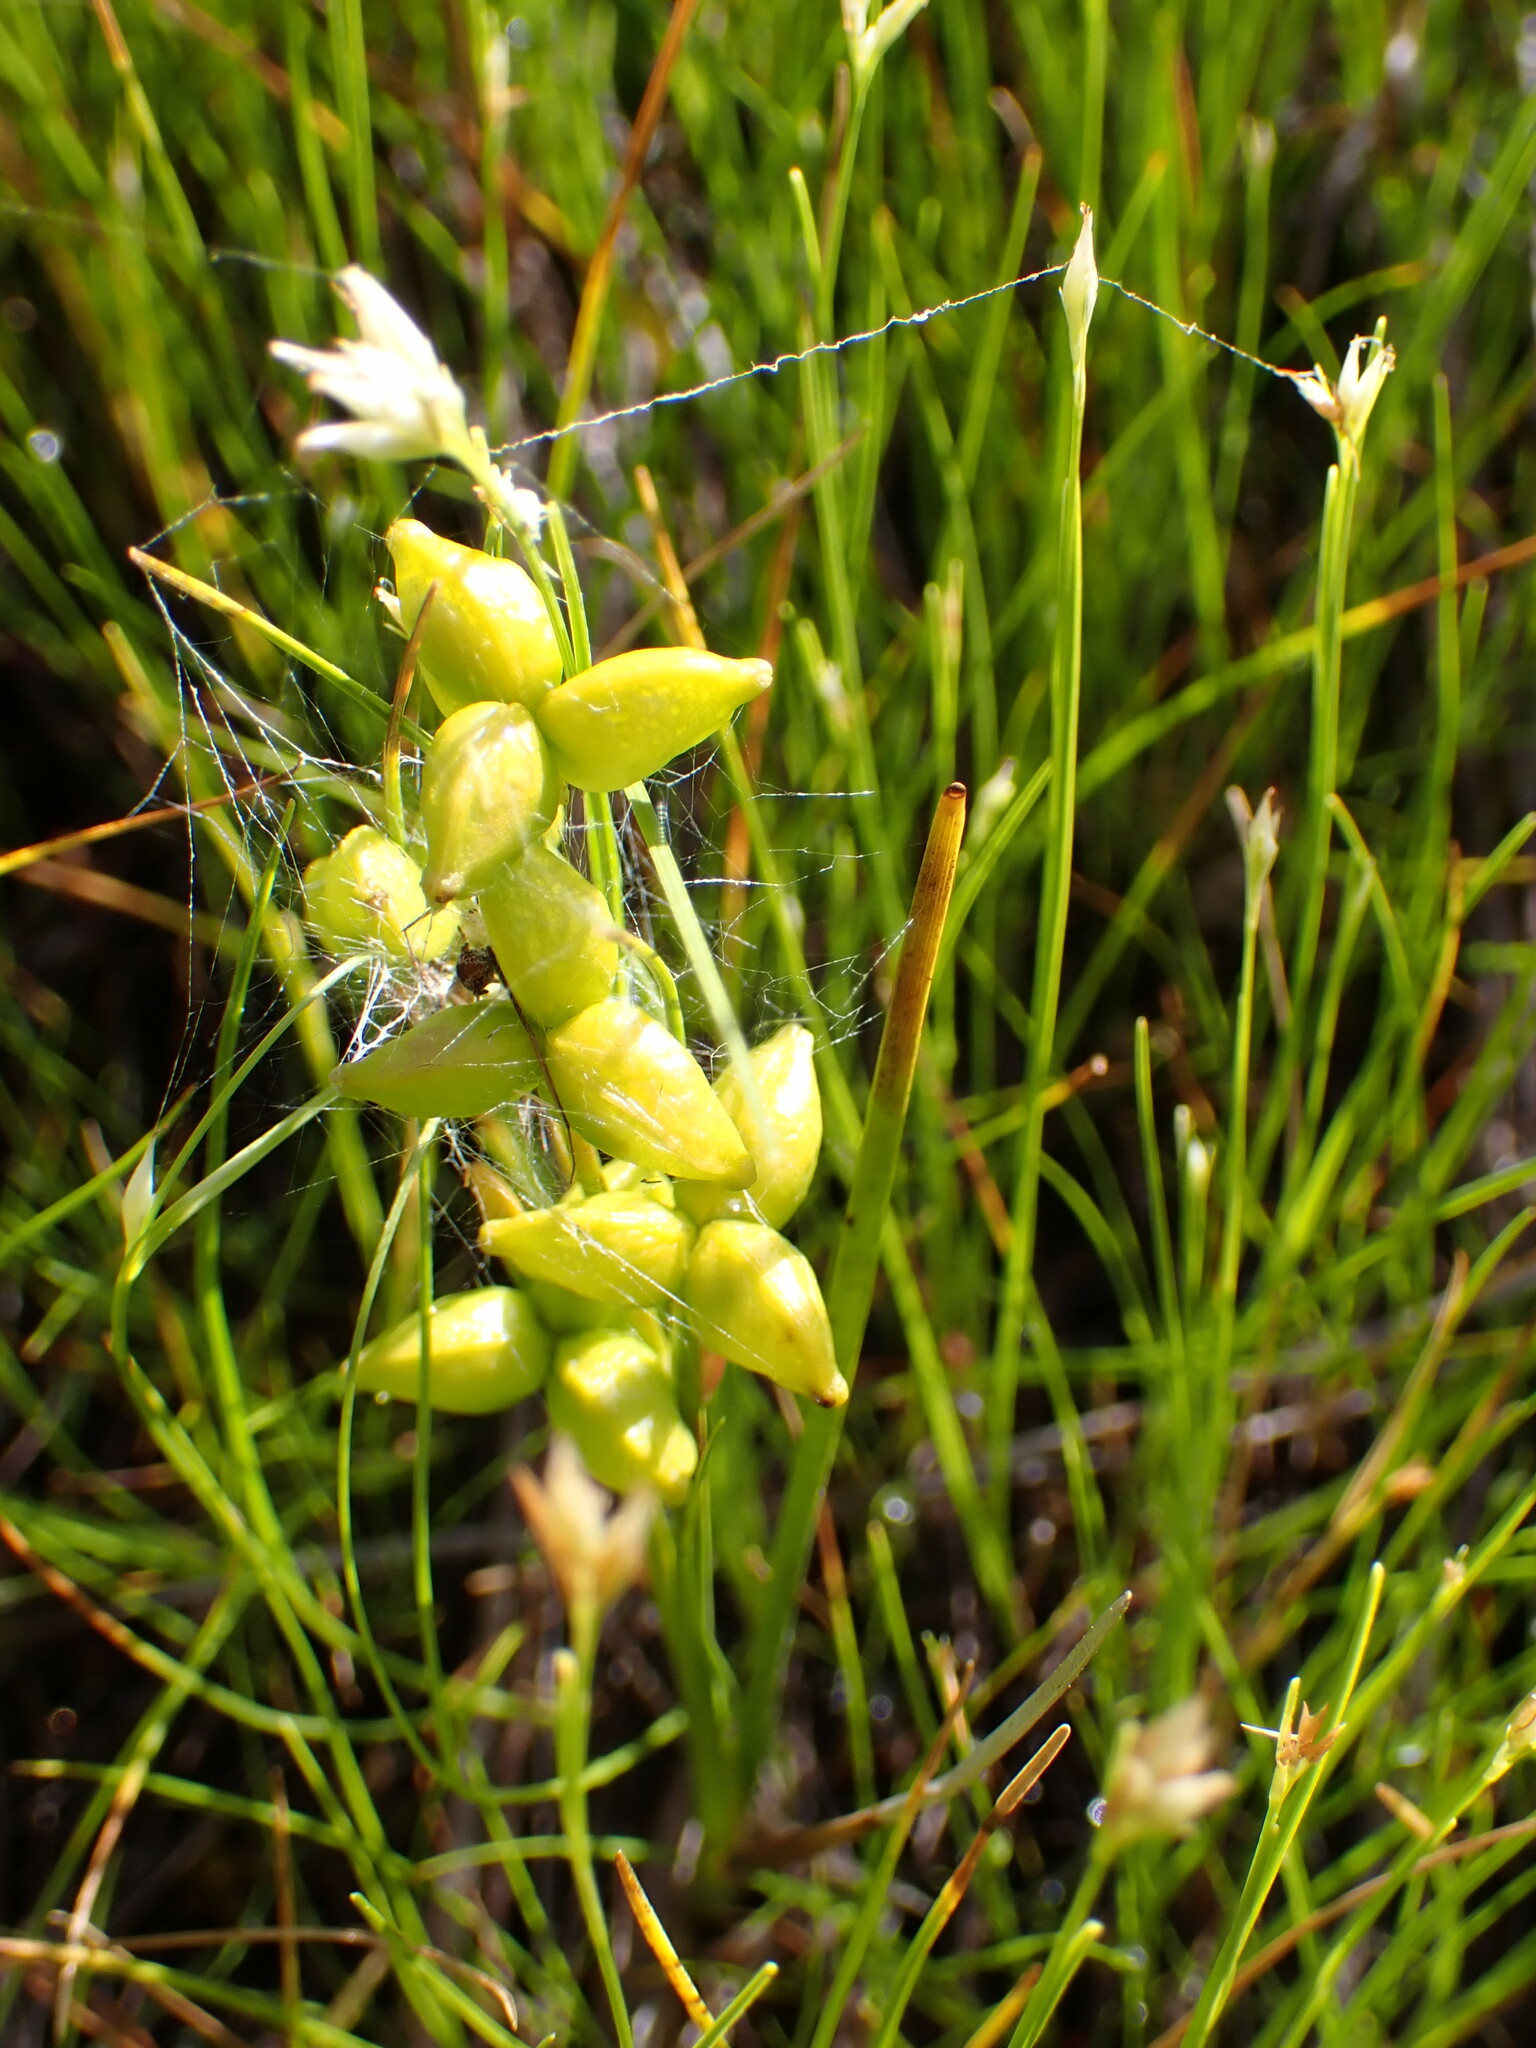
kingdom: Plantae
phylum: Tracheophyta
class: Liliopsida
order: Alismatales
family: Scheuchzeriaceae
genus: Scheuchzeria
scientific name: Scheuchzeria palustris
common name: Rannoch-rush
